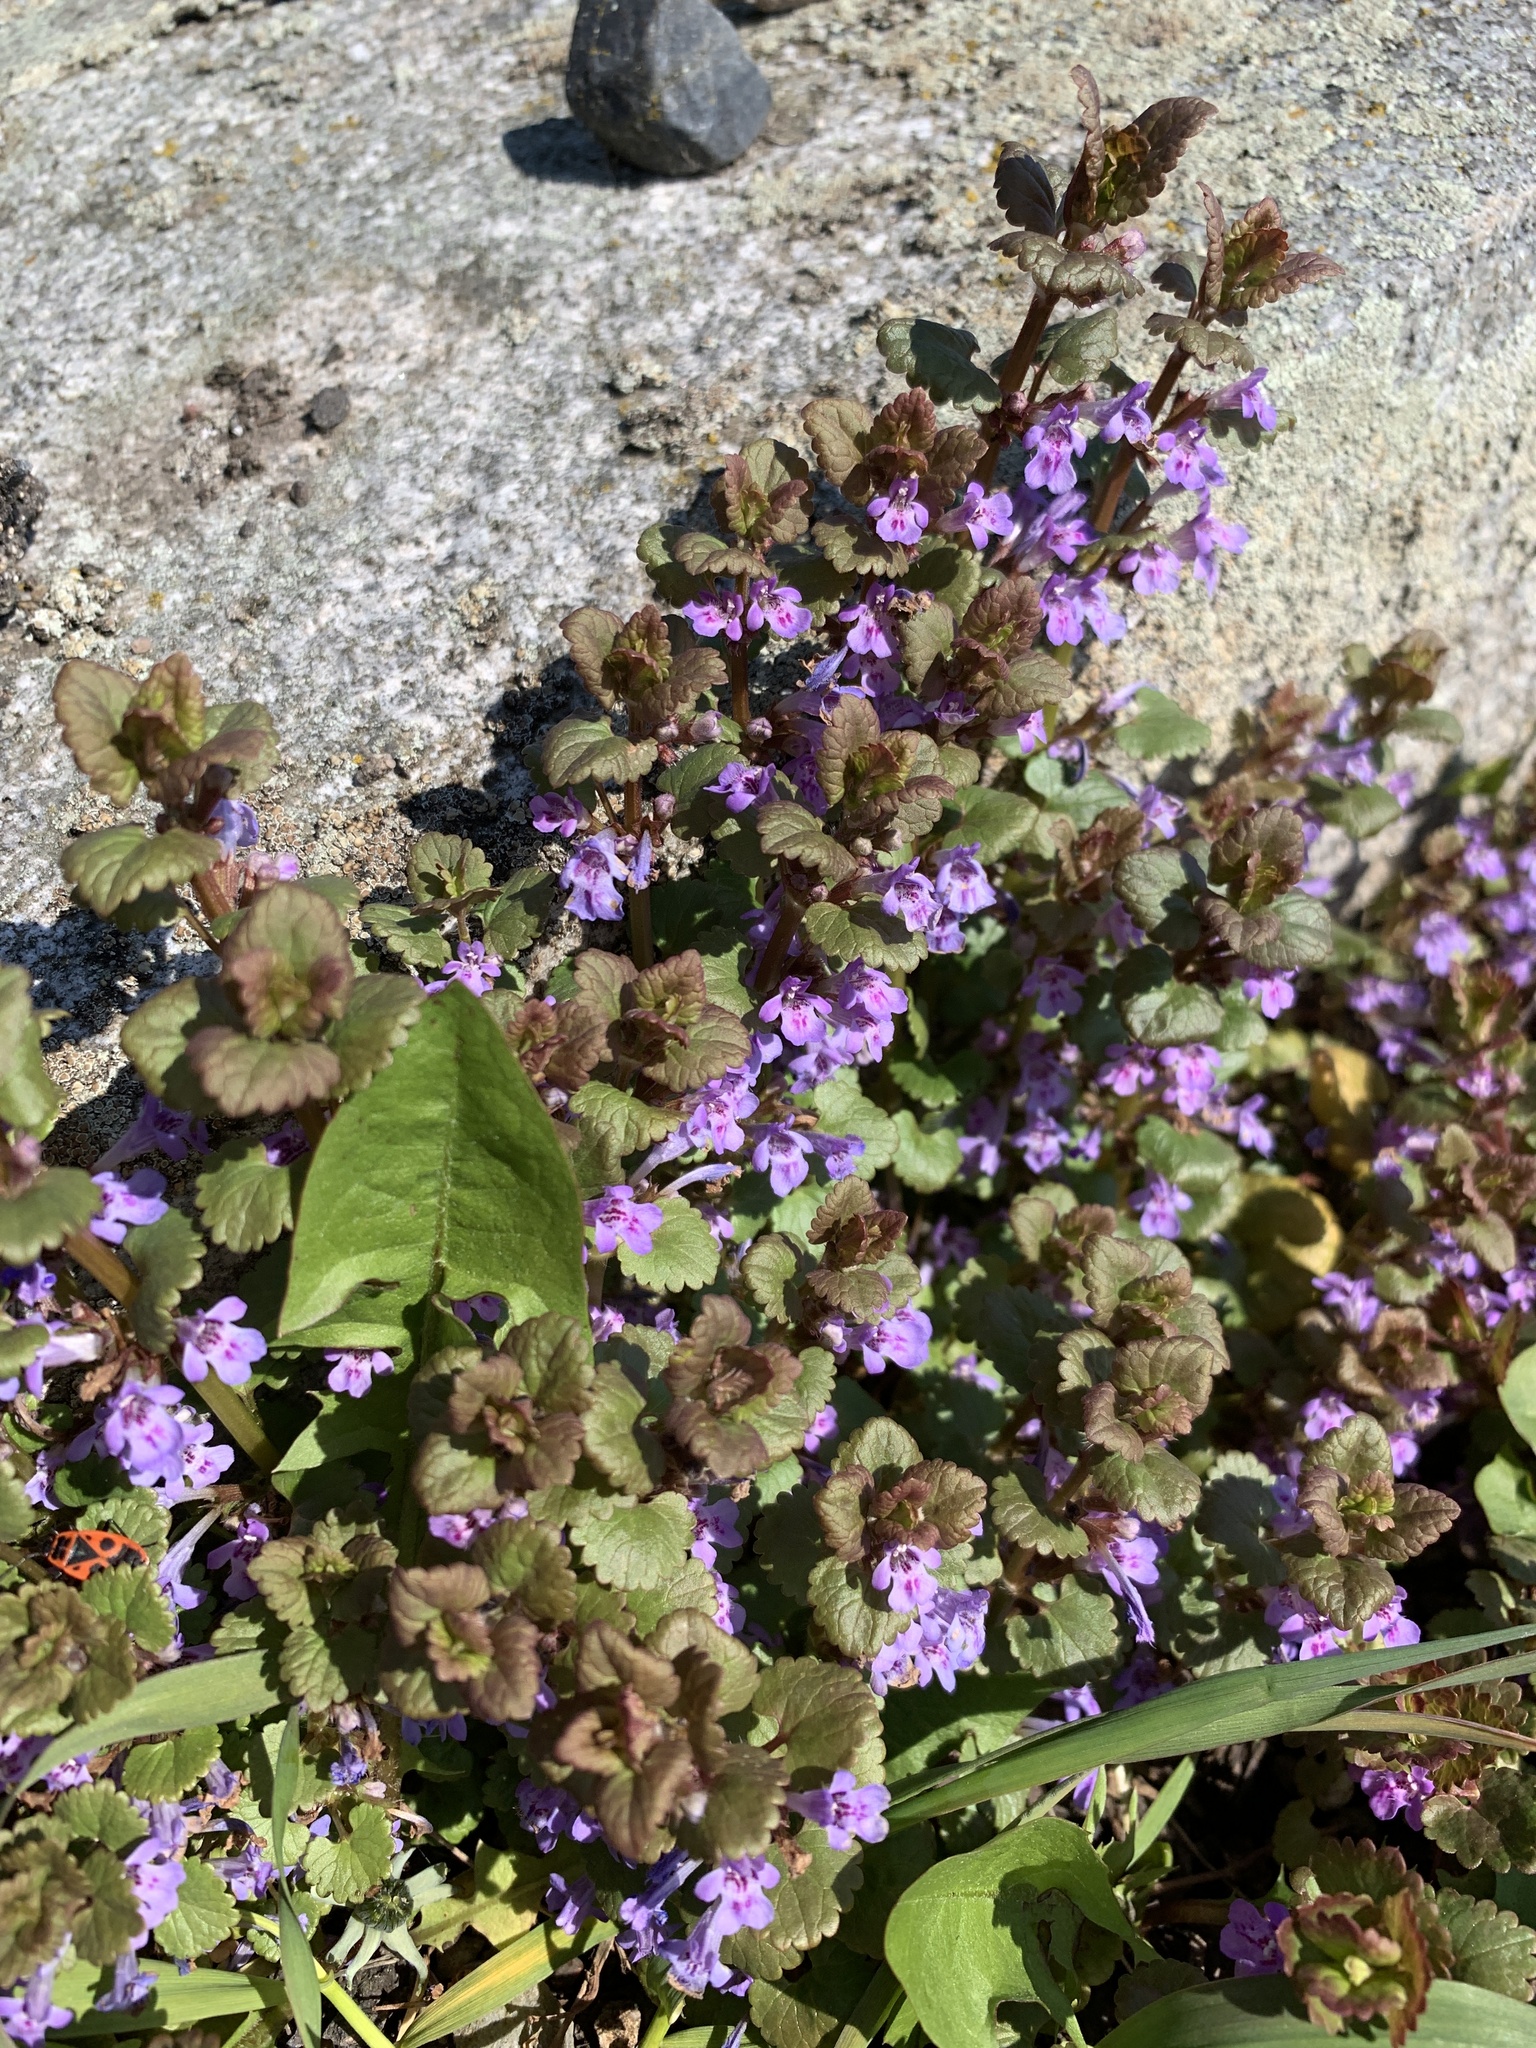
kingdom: Plantae
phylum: Tracheophyta
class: Magnoliopsida
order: Lamiales
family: Lamiaceae
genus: Glechoma
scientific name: Glechoma hederacea
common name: Ground ivy
